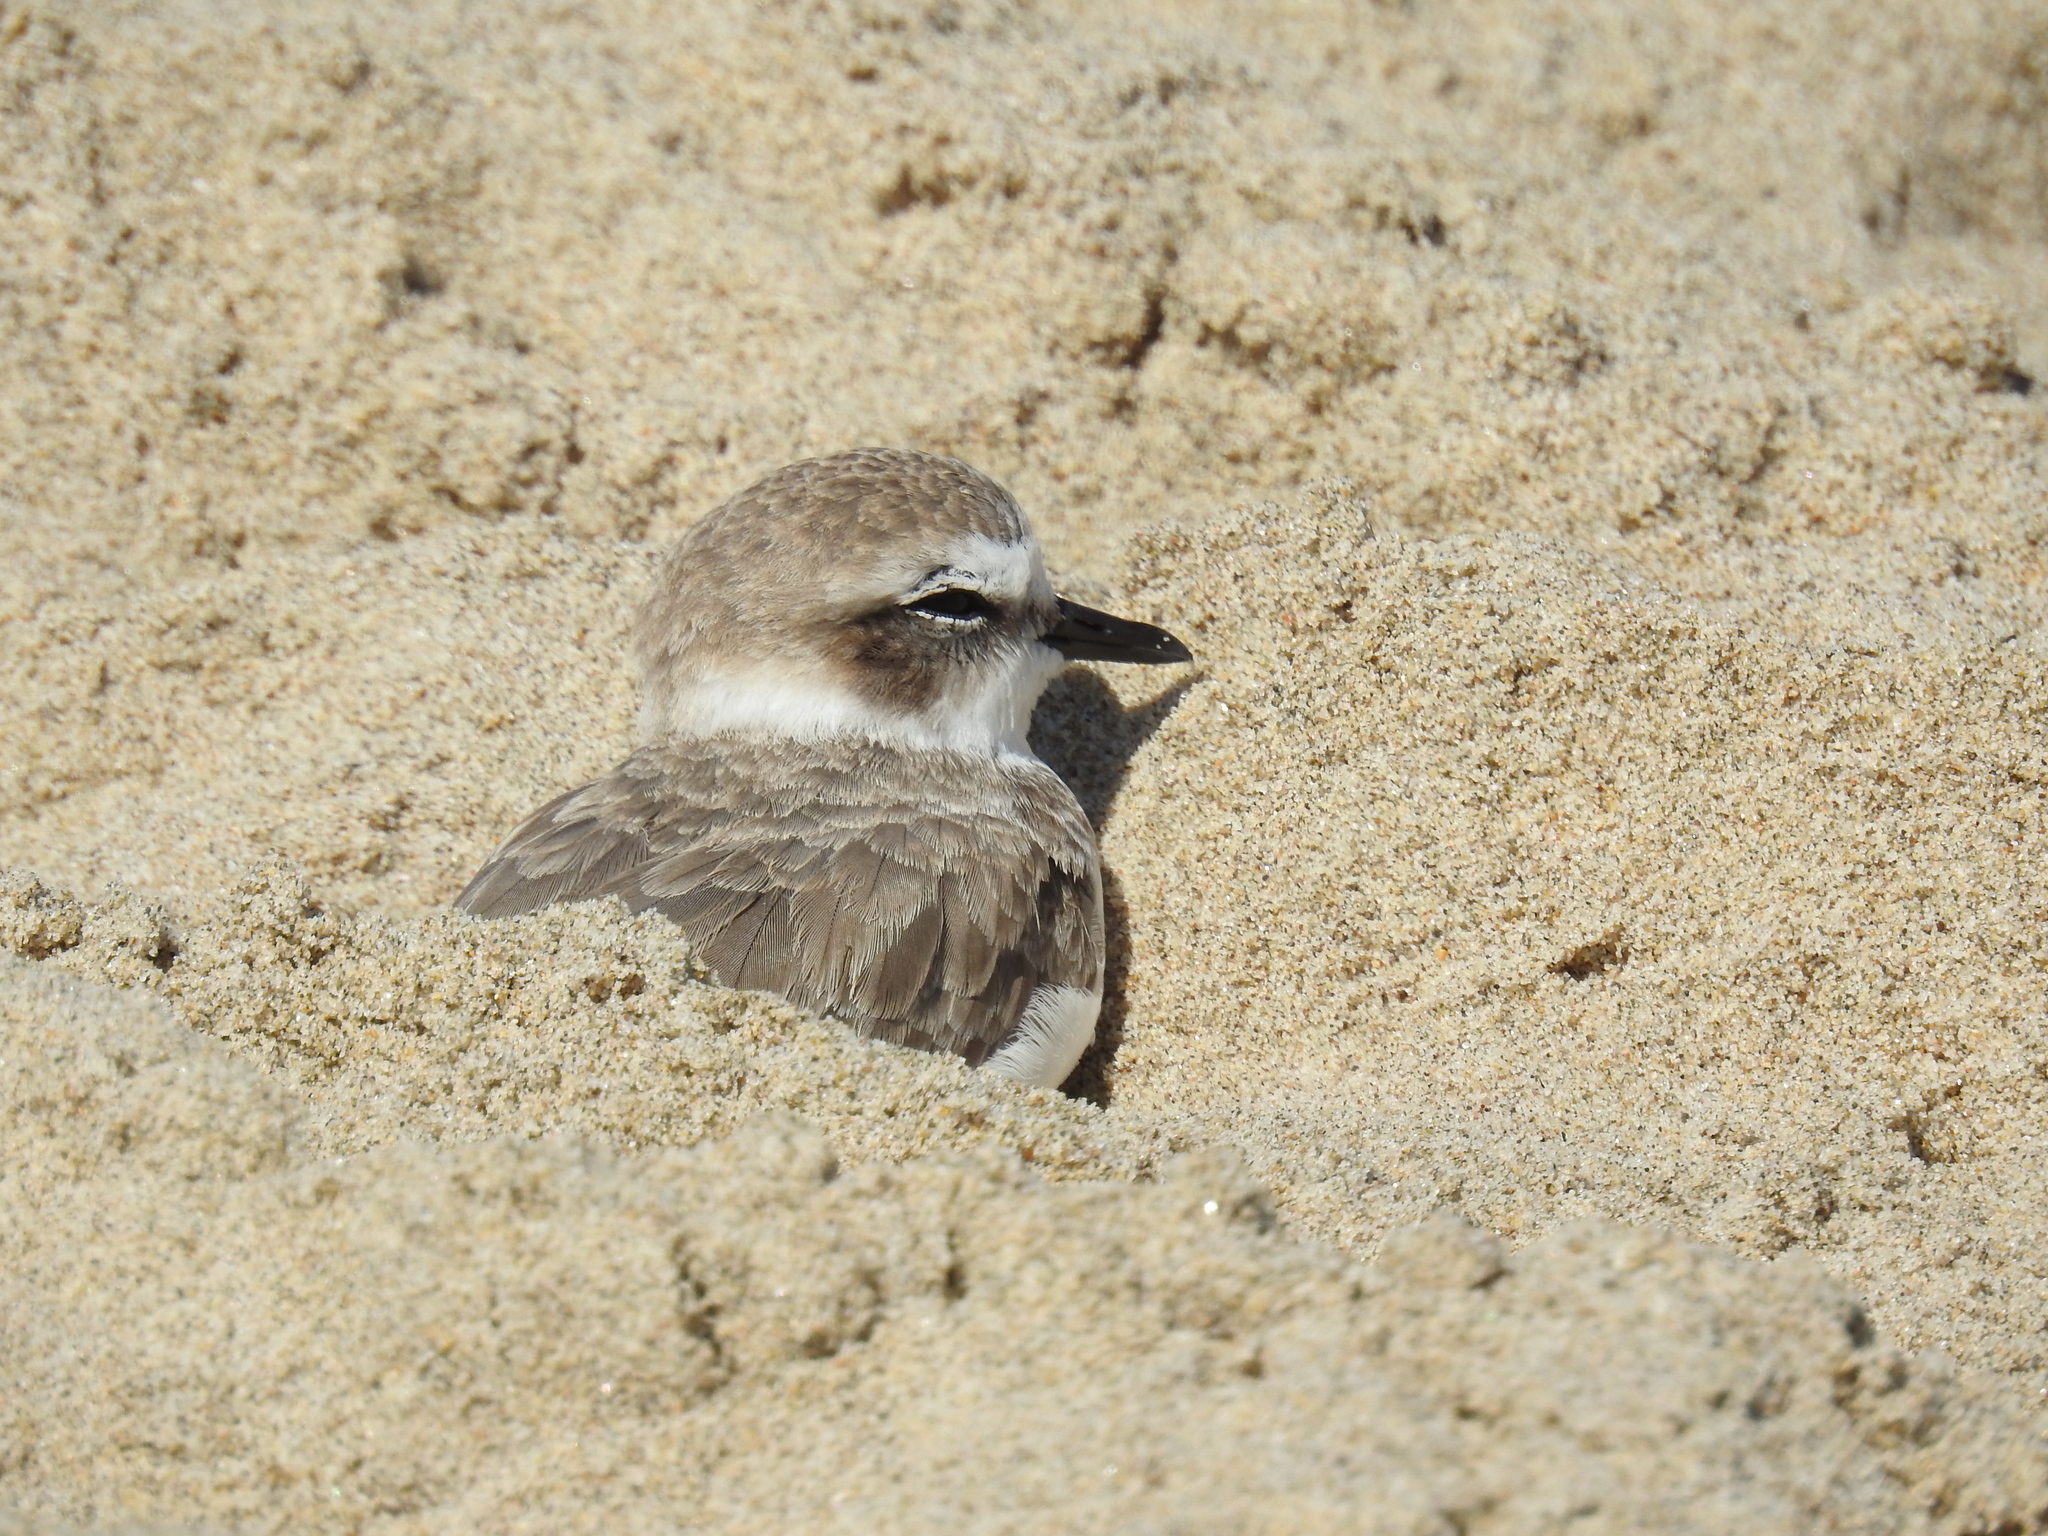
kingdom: Animalia
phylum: Chordata
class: Aves
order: Charadriiformes
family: Charadriidae
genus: Anarhynchus
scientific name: Anarhynchus
